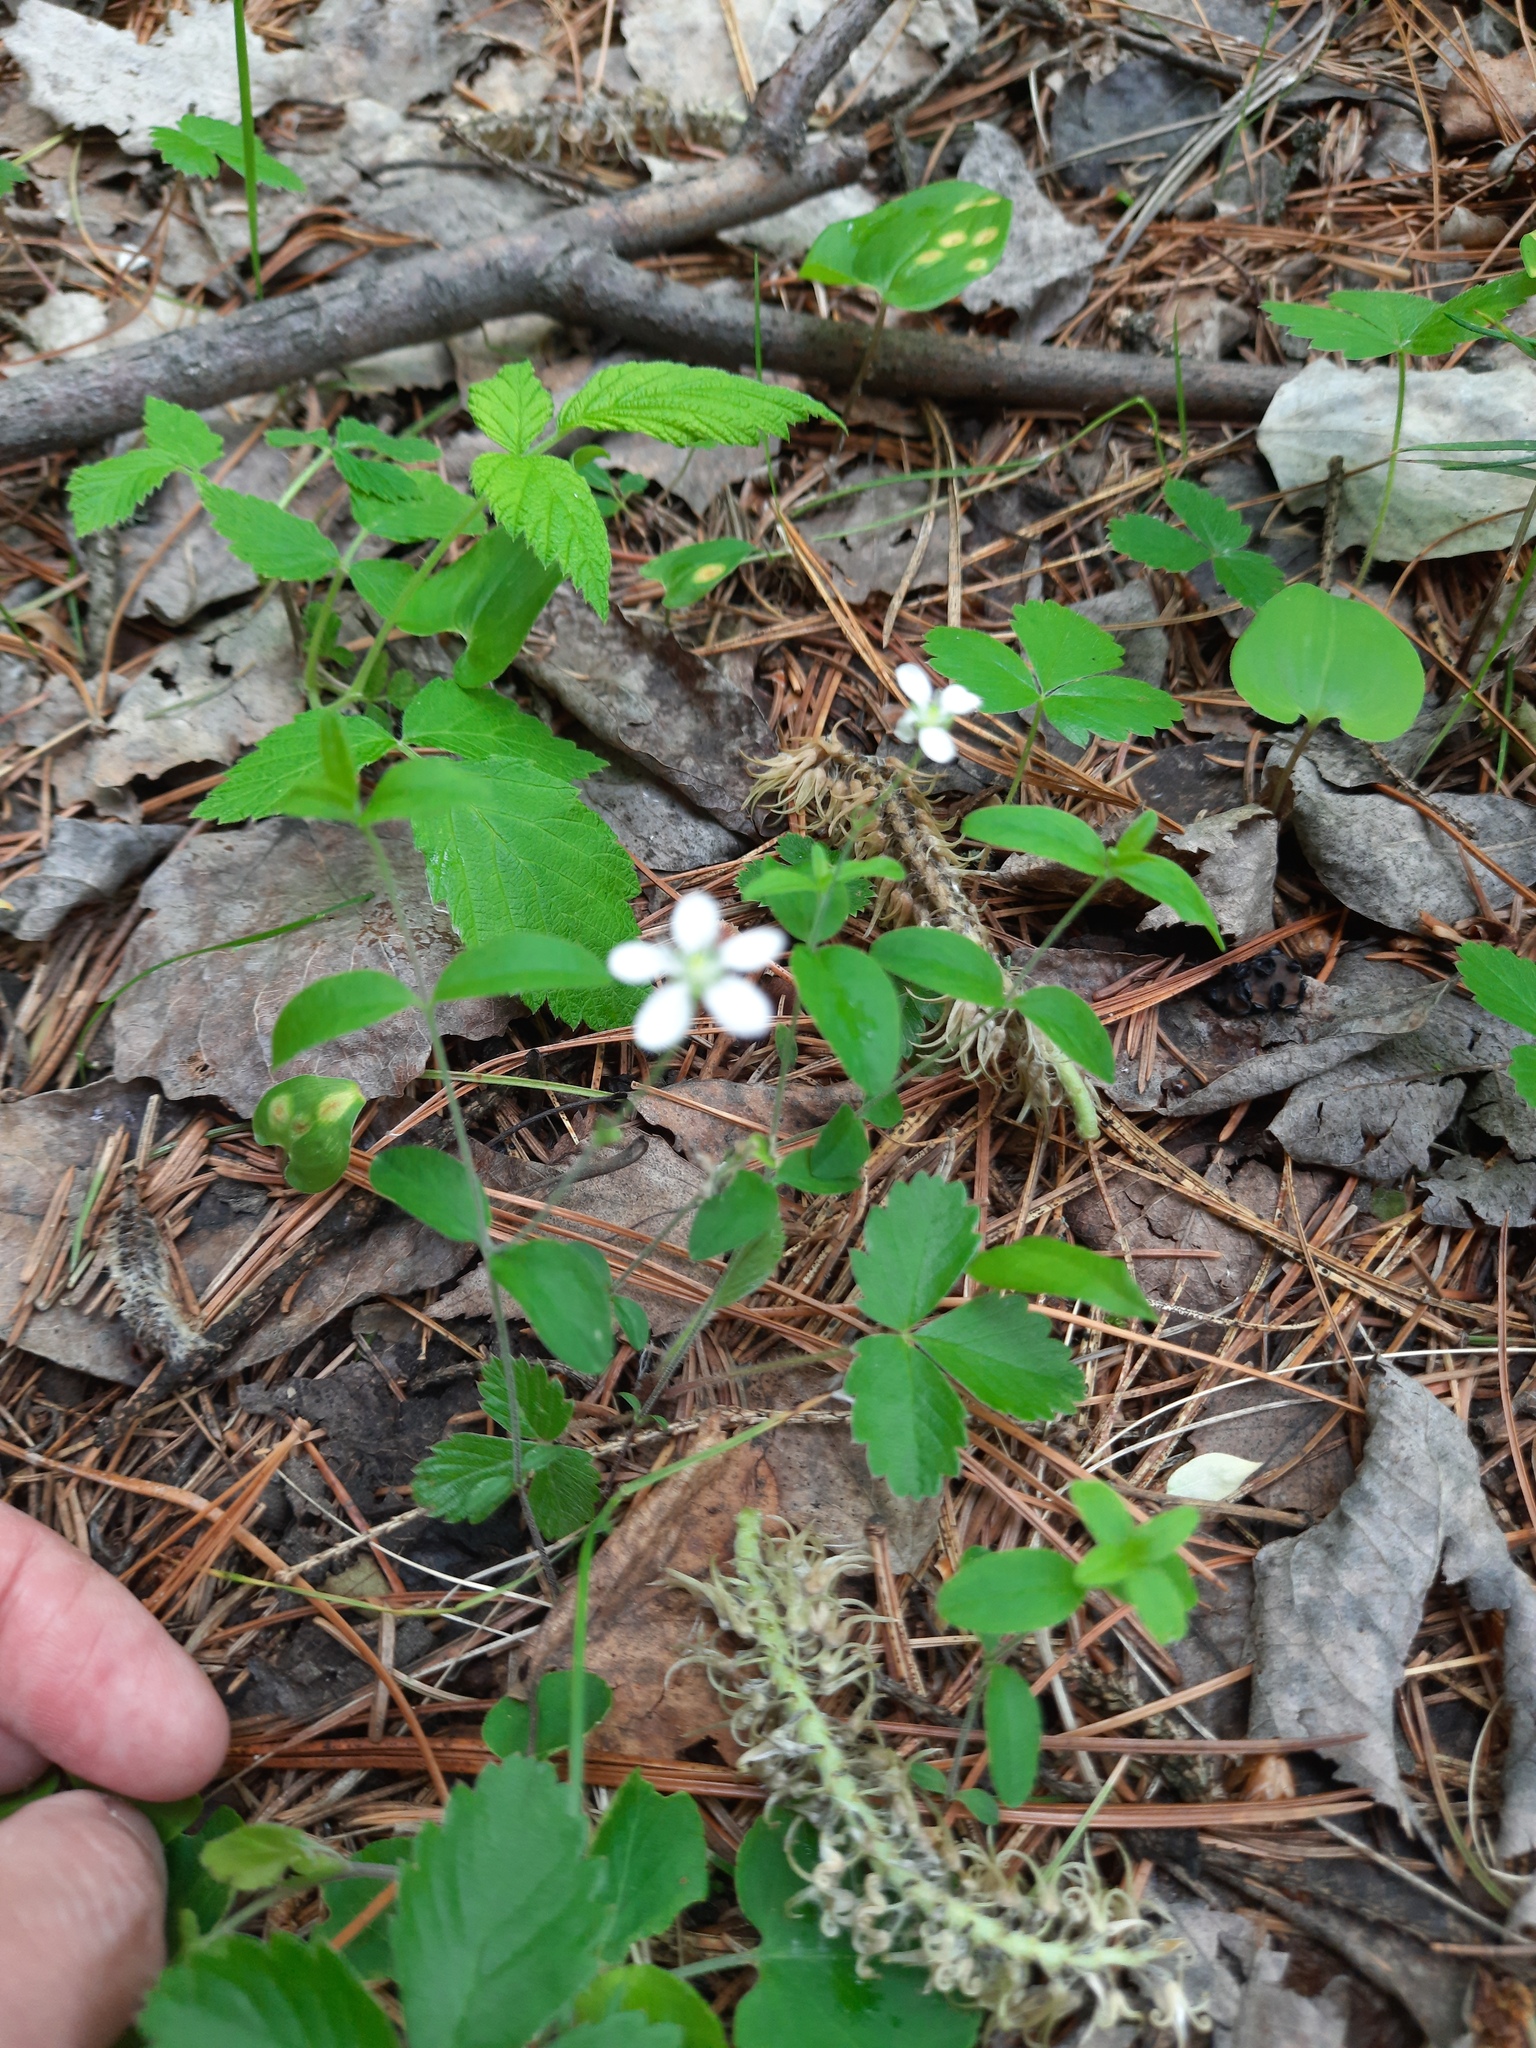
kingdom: Plantae
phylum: Tracheophyta
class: Magnoliopsida
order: Caryophyllales
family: Caryophyllaceae
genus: Moehringia
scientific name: Moehringia lateriflora
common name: Blunt-leaved sandwort
